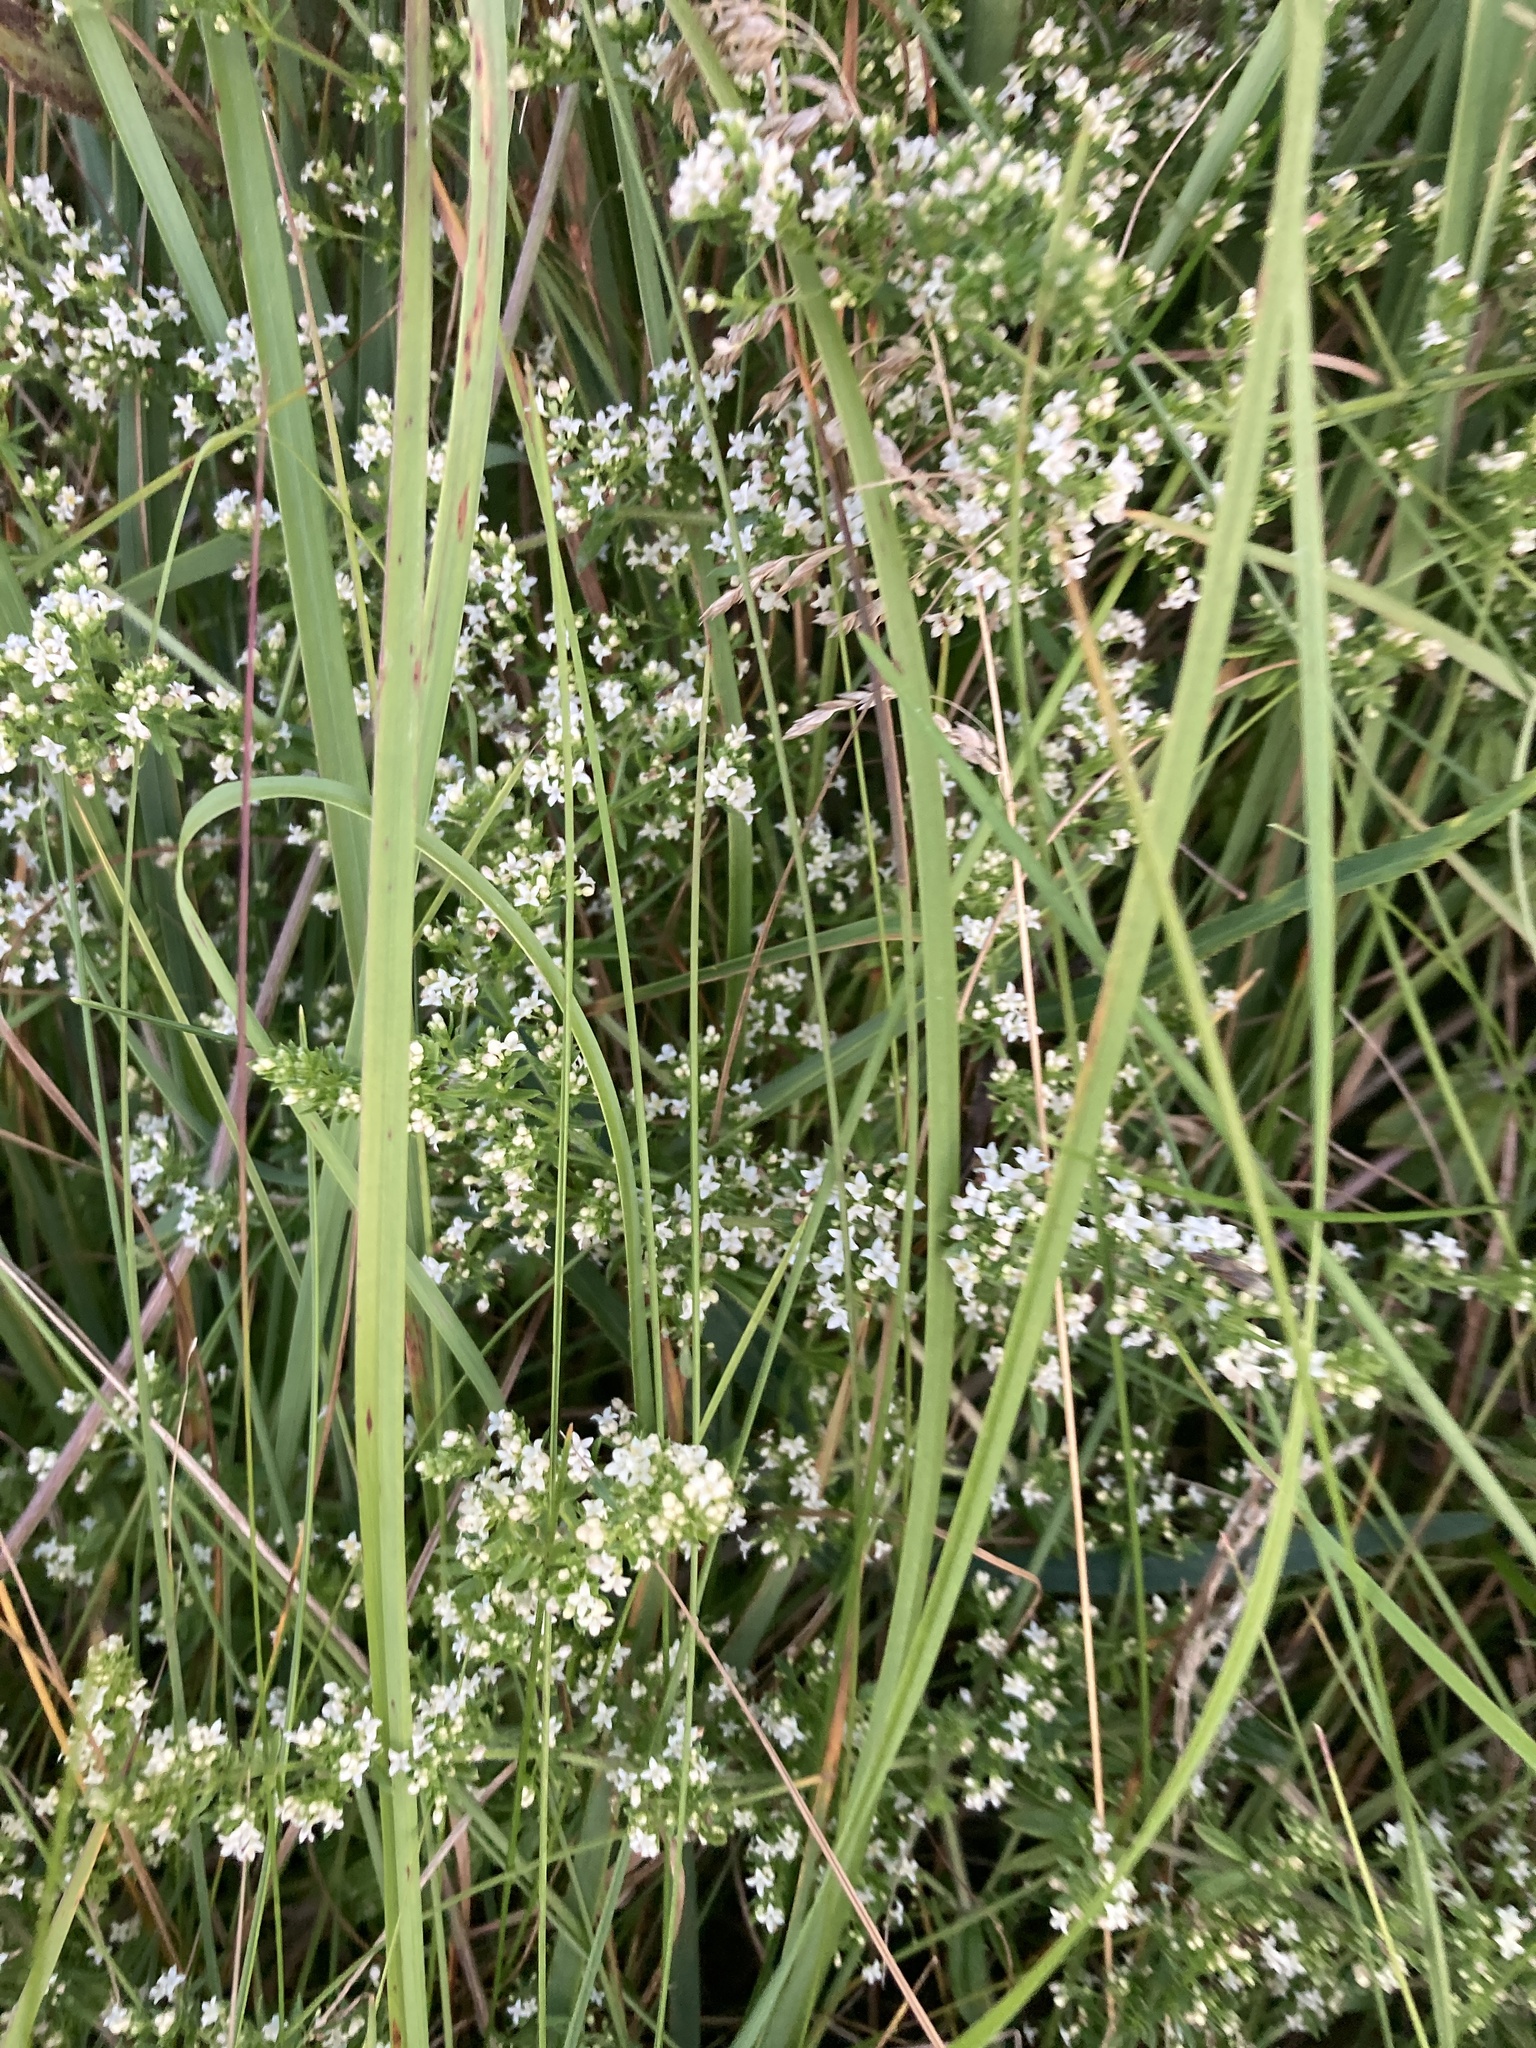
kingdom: Plantae
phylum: Tracheophyta
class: Magnoliopsida
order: Gentianales
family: Rubiaceae
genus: Galium
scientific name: Galium humifusum
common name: Spreading bedstraw
